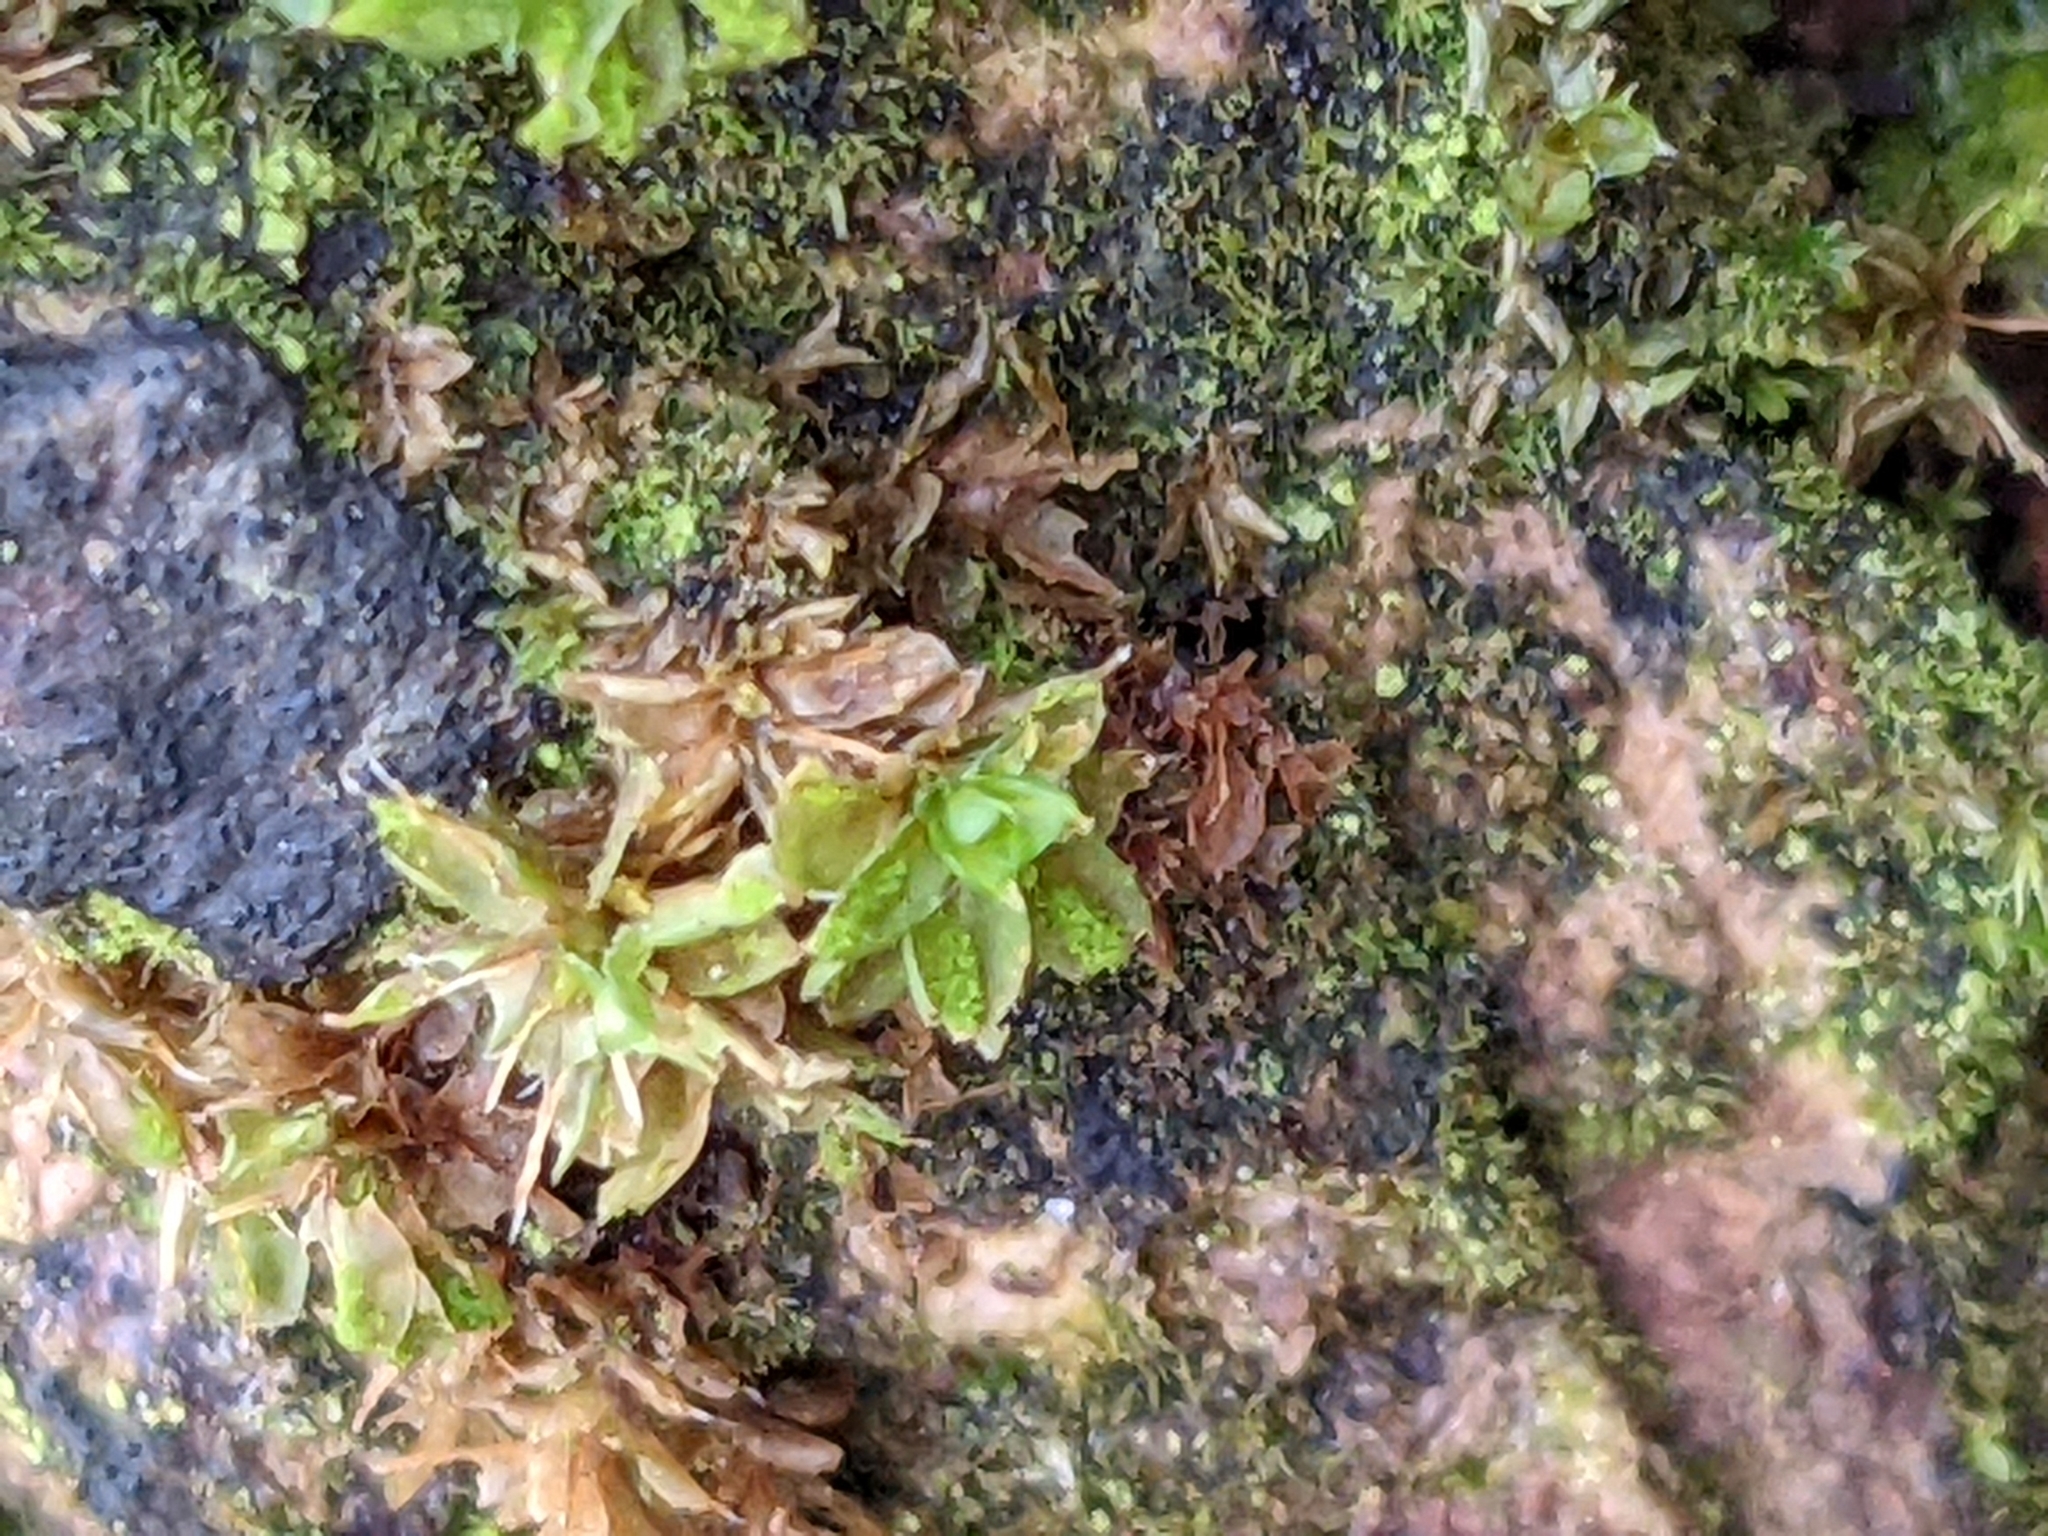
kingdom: Plantae
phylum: Bryophyta
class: Bryopsida
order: Pottiales
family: Pottiaceae
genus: Syntrichia
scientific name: Syntrichia papillosa
